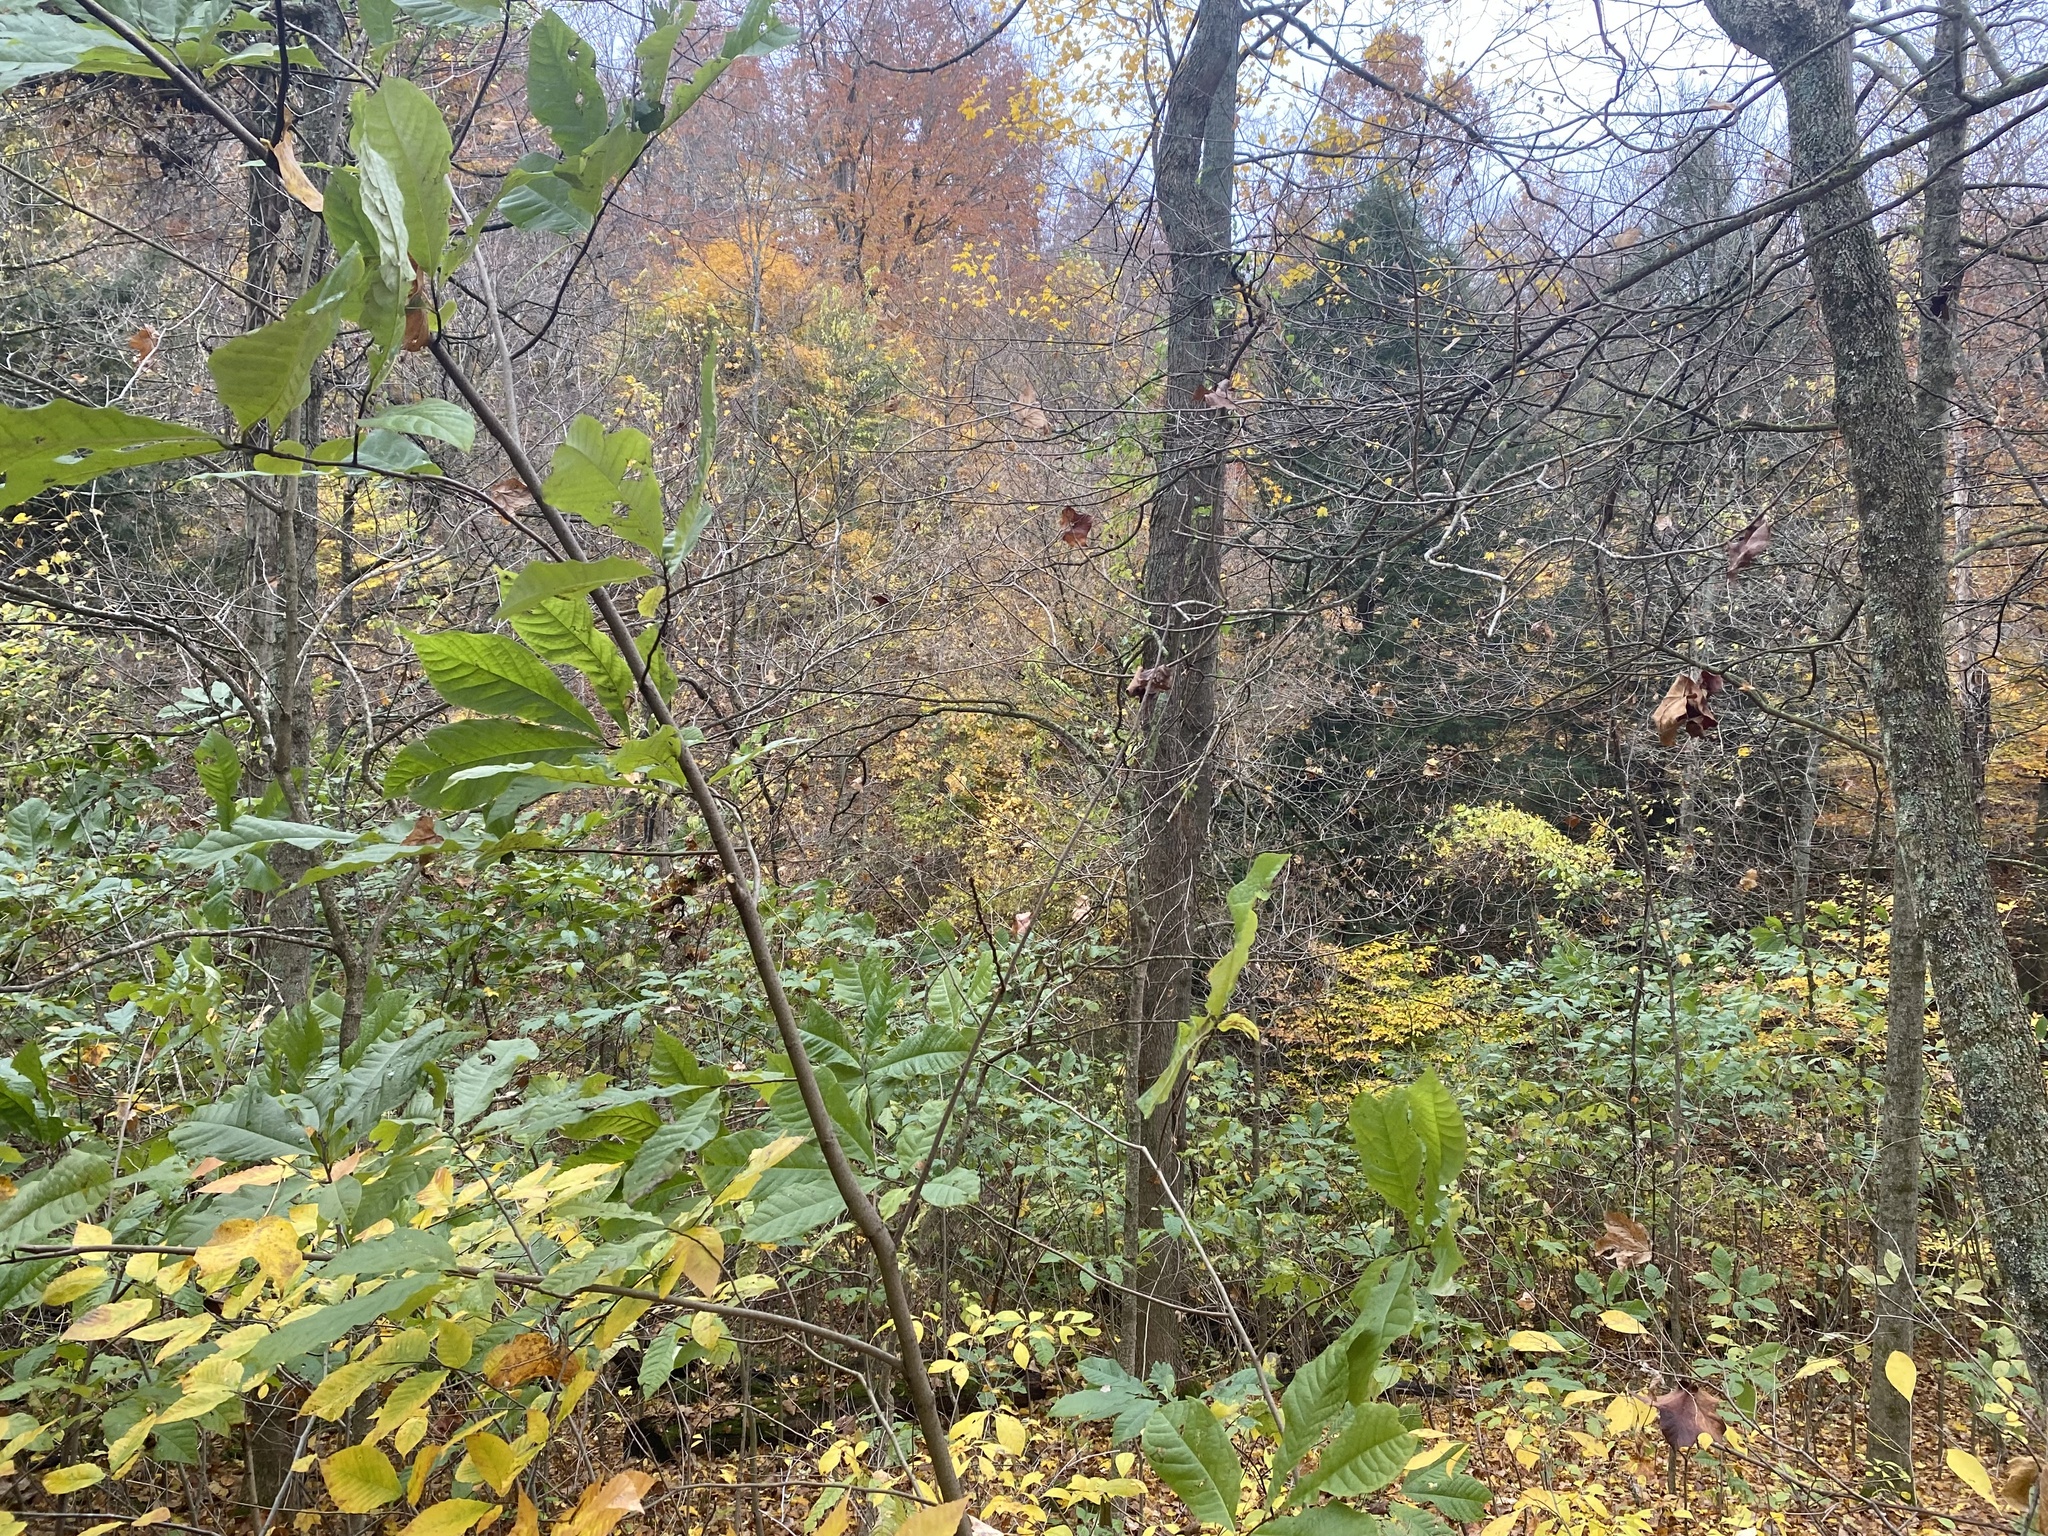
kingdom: Plantae
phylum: Tracheophyta
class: Magnoliopsida
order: Magnoliales
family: Annonaceae
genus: Asimina
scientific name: Asimina triloba
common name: Dog-banana
